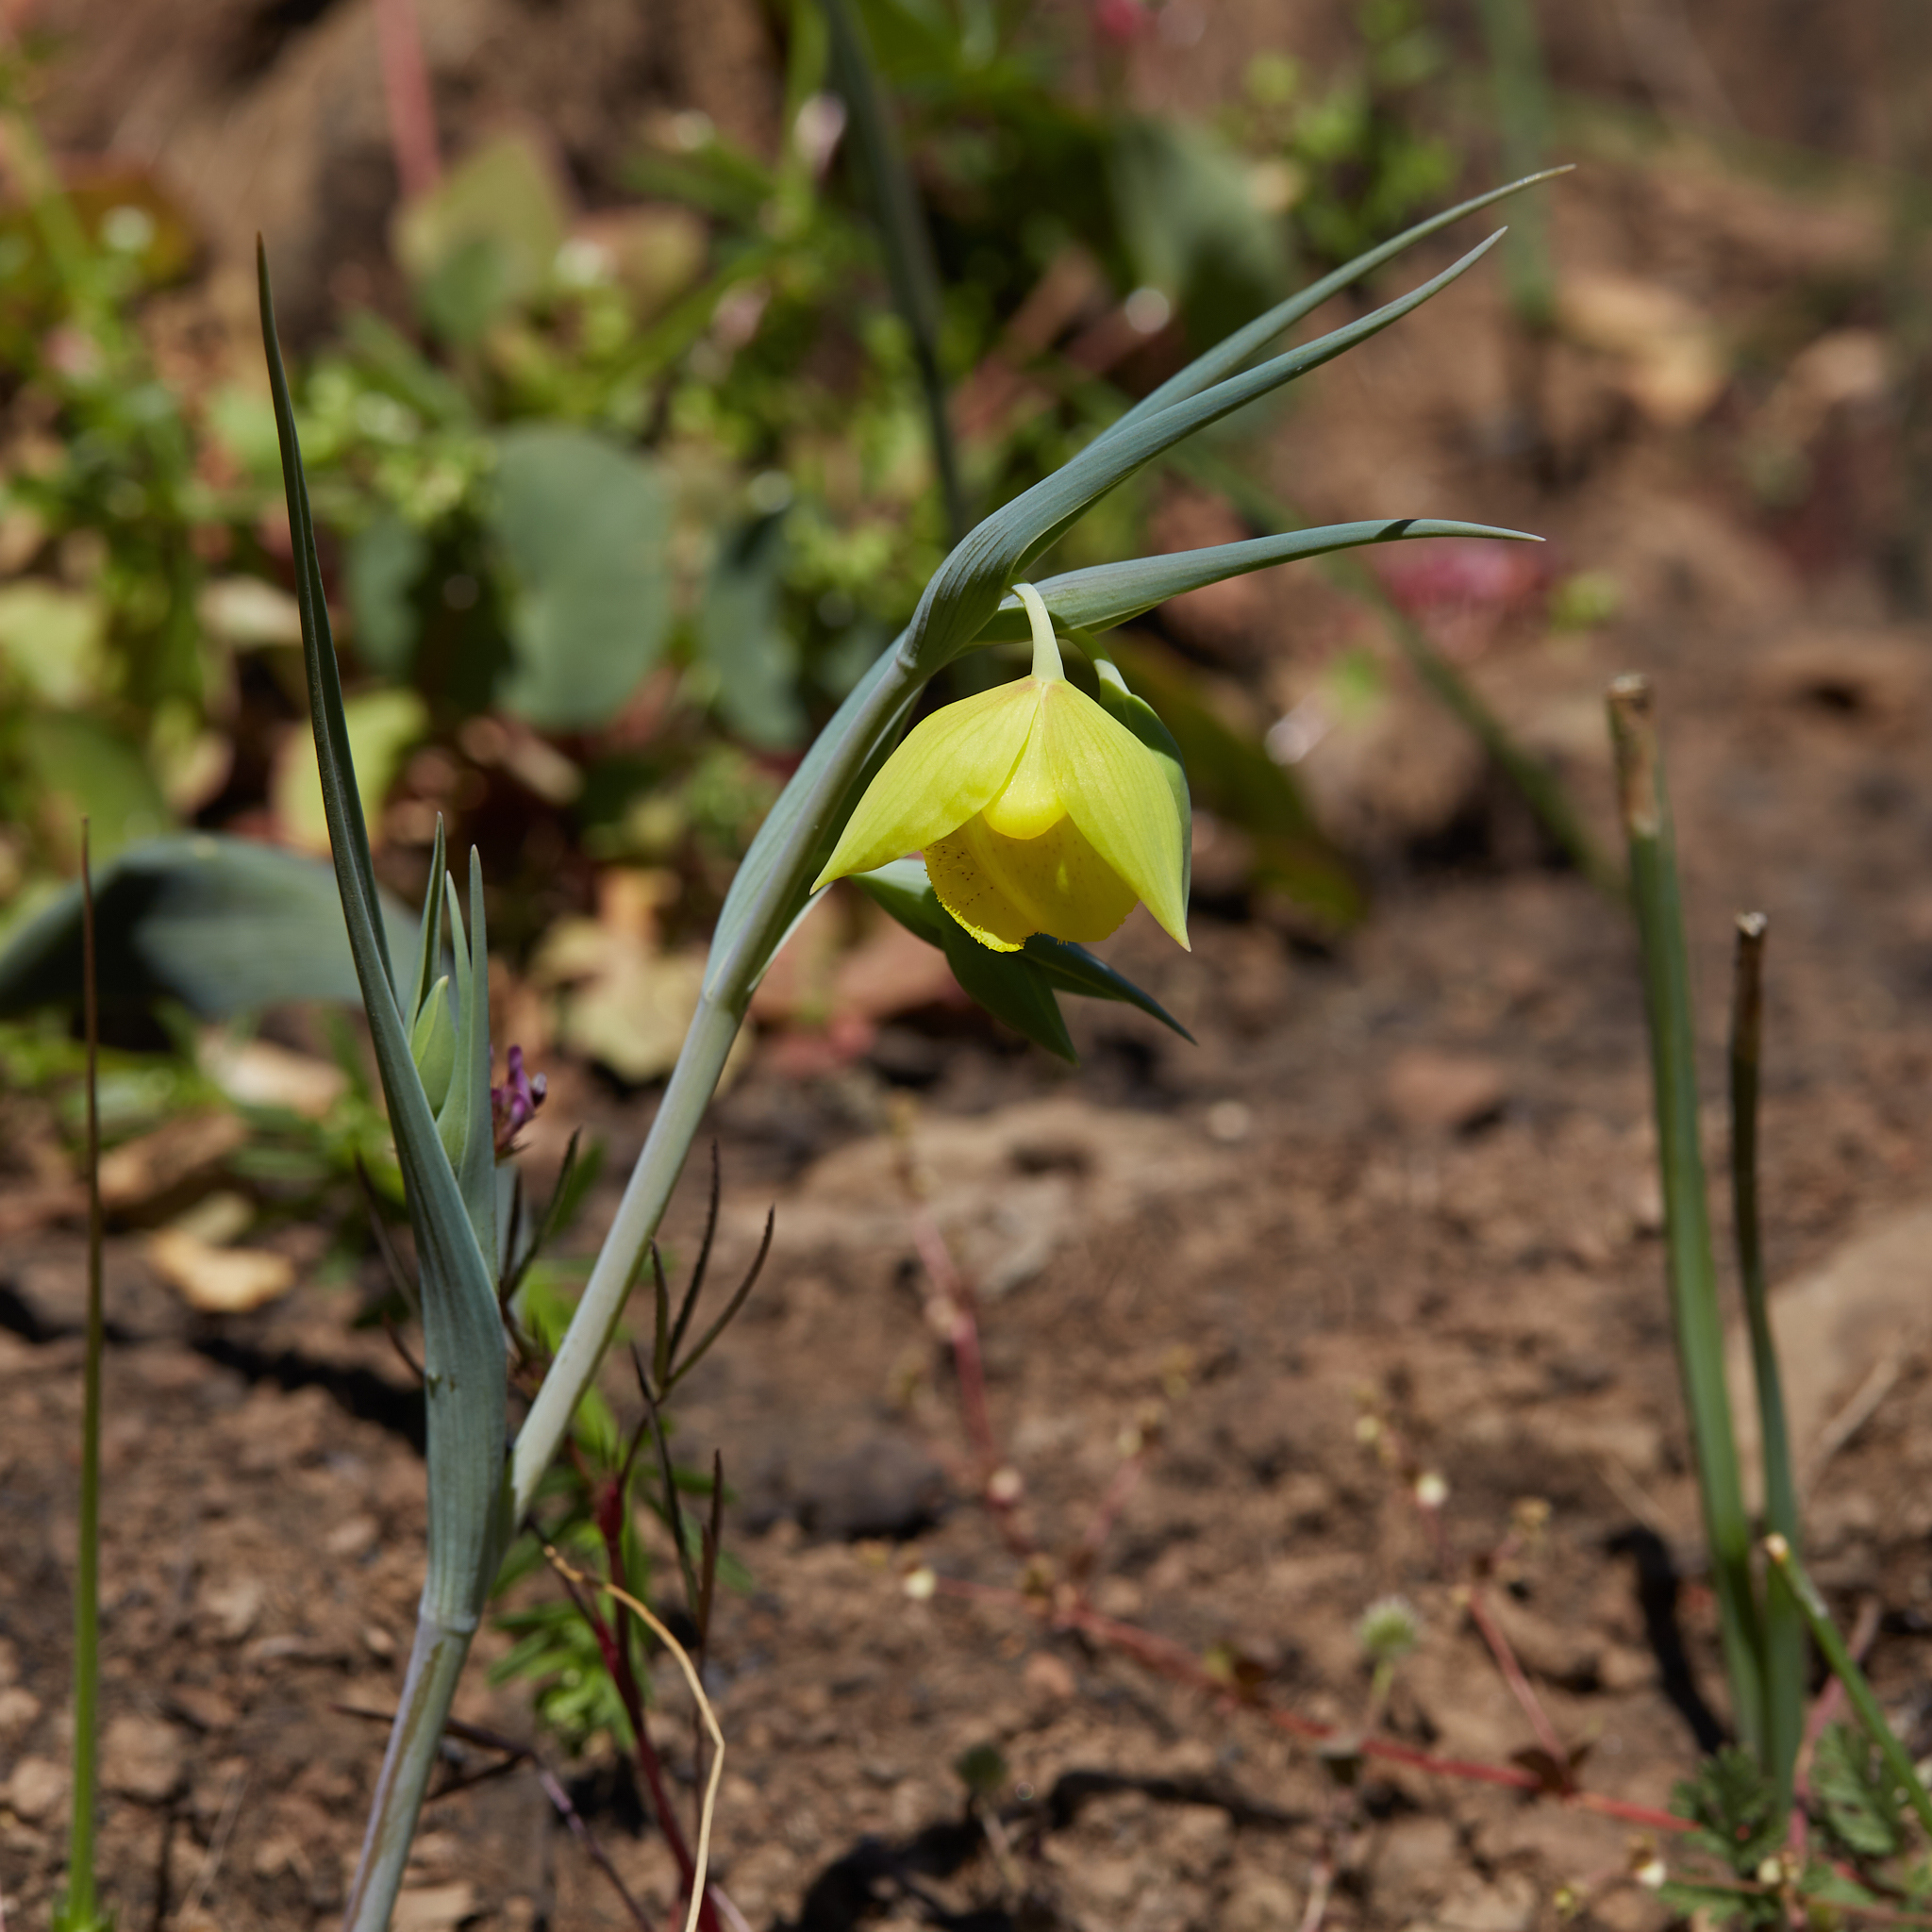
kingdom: Plantae
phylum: Tracheophyta
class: Liliopsida
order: Liliales
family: Liliaceae
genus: Calochortus
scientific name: Calochortus pulchellus
